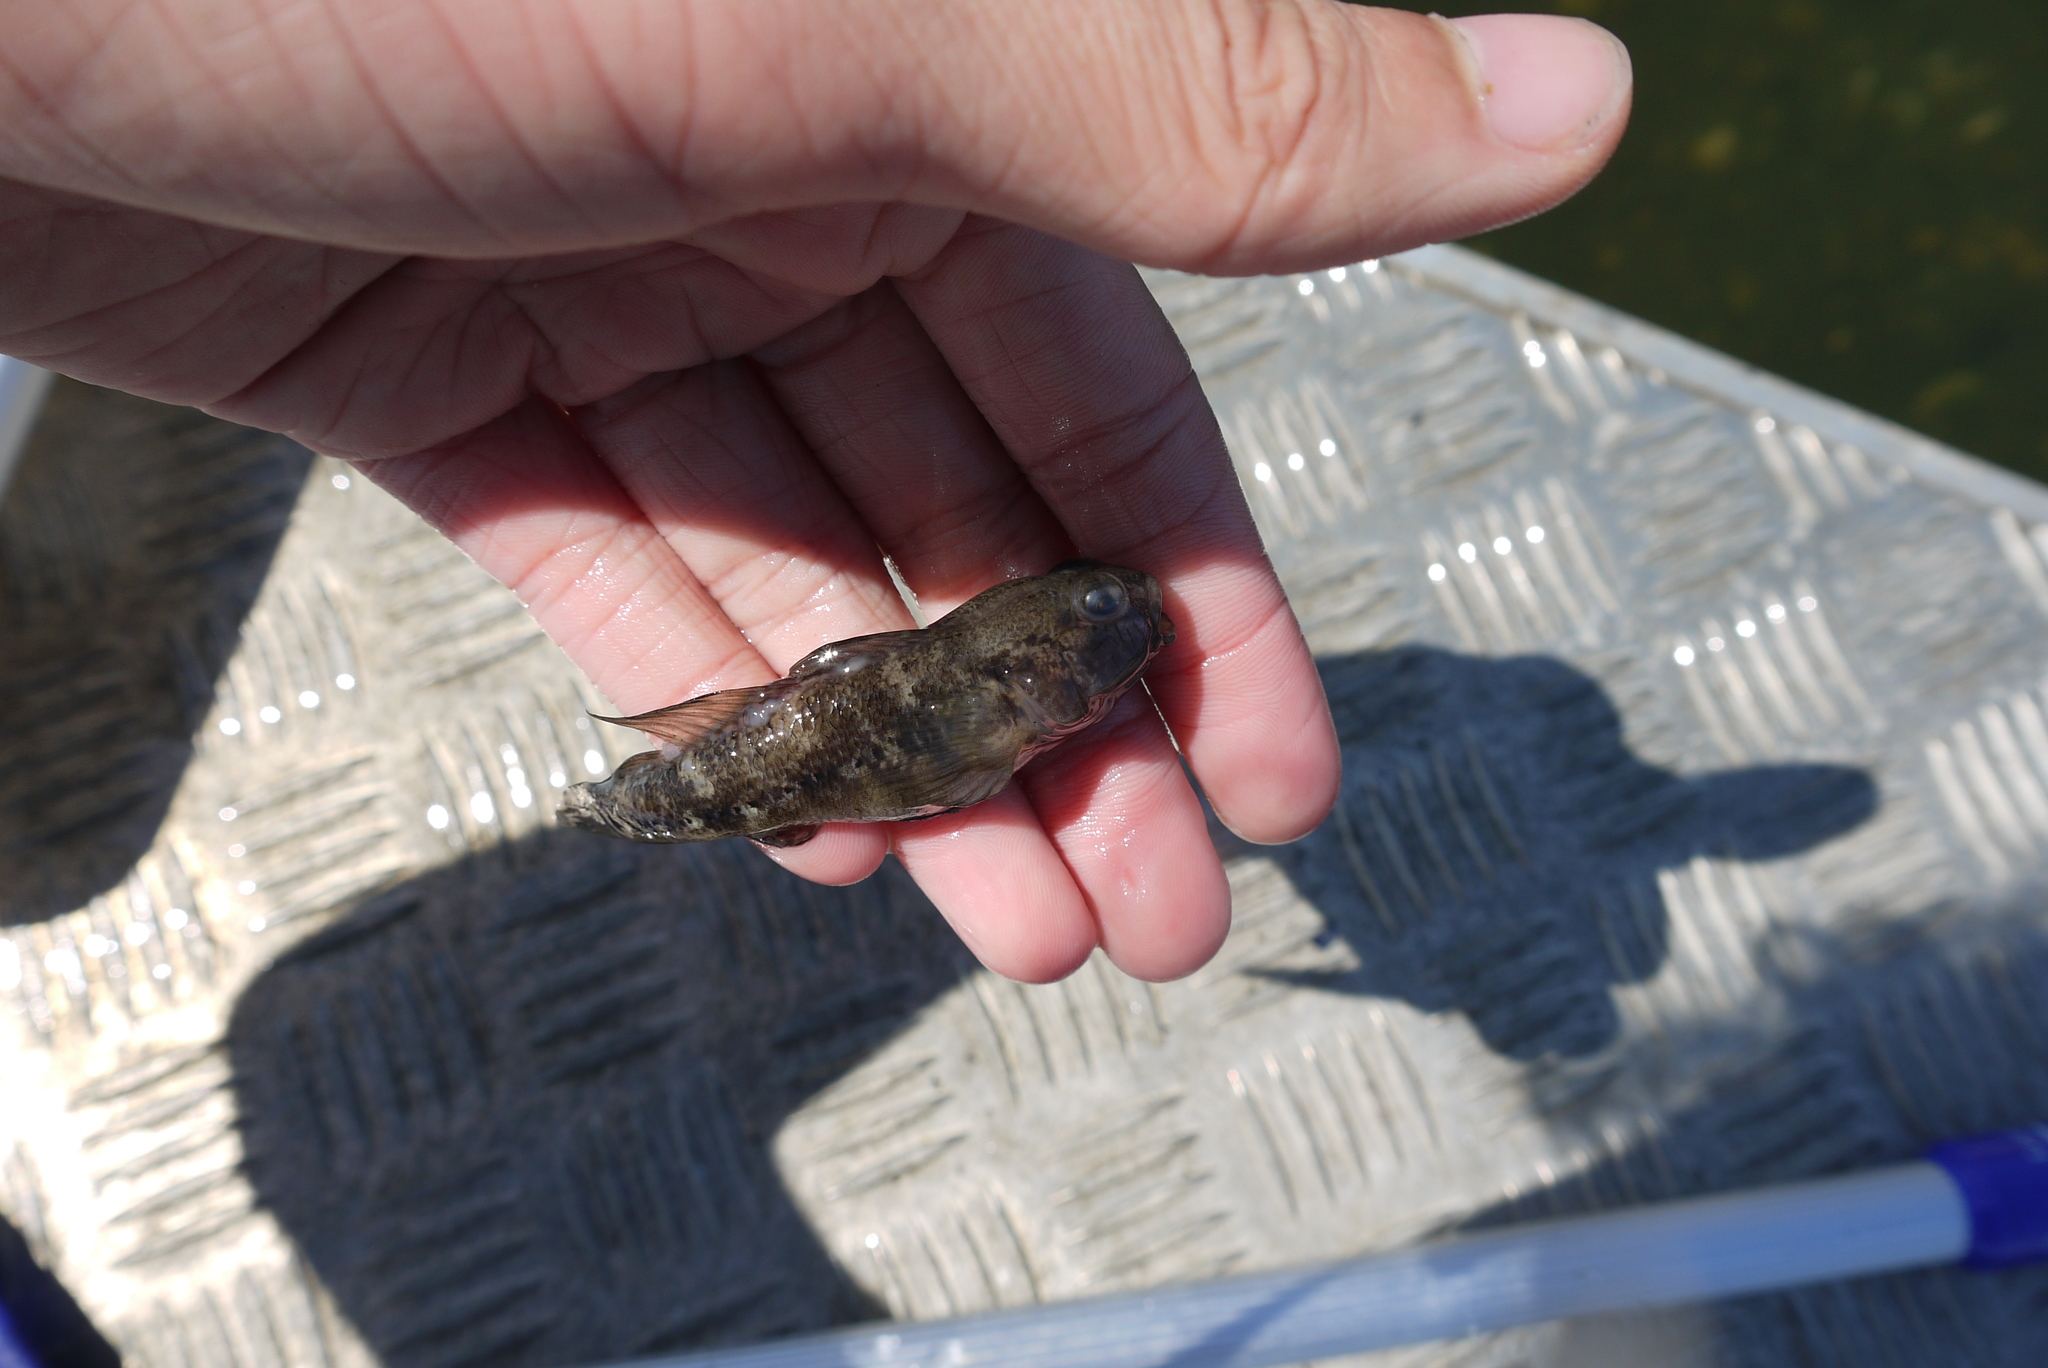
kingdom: Animalia
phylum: Chordata
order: Perciformes
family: Gobiidae
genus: Gobius
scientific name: Gobius niger
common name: Black goby
